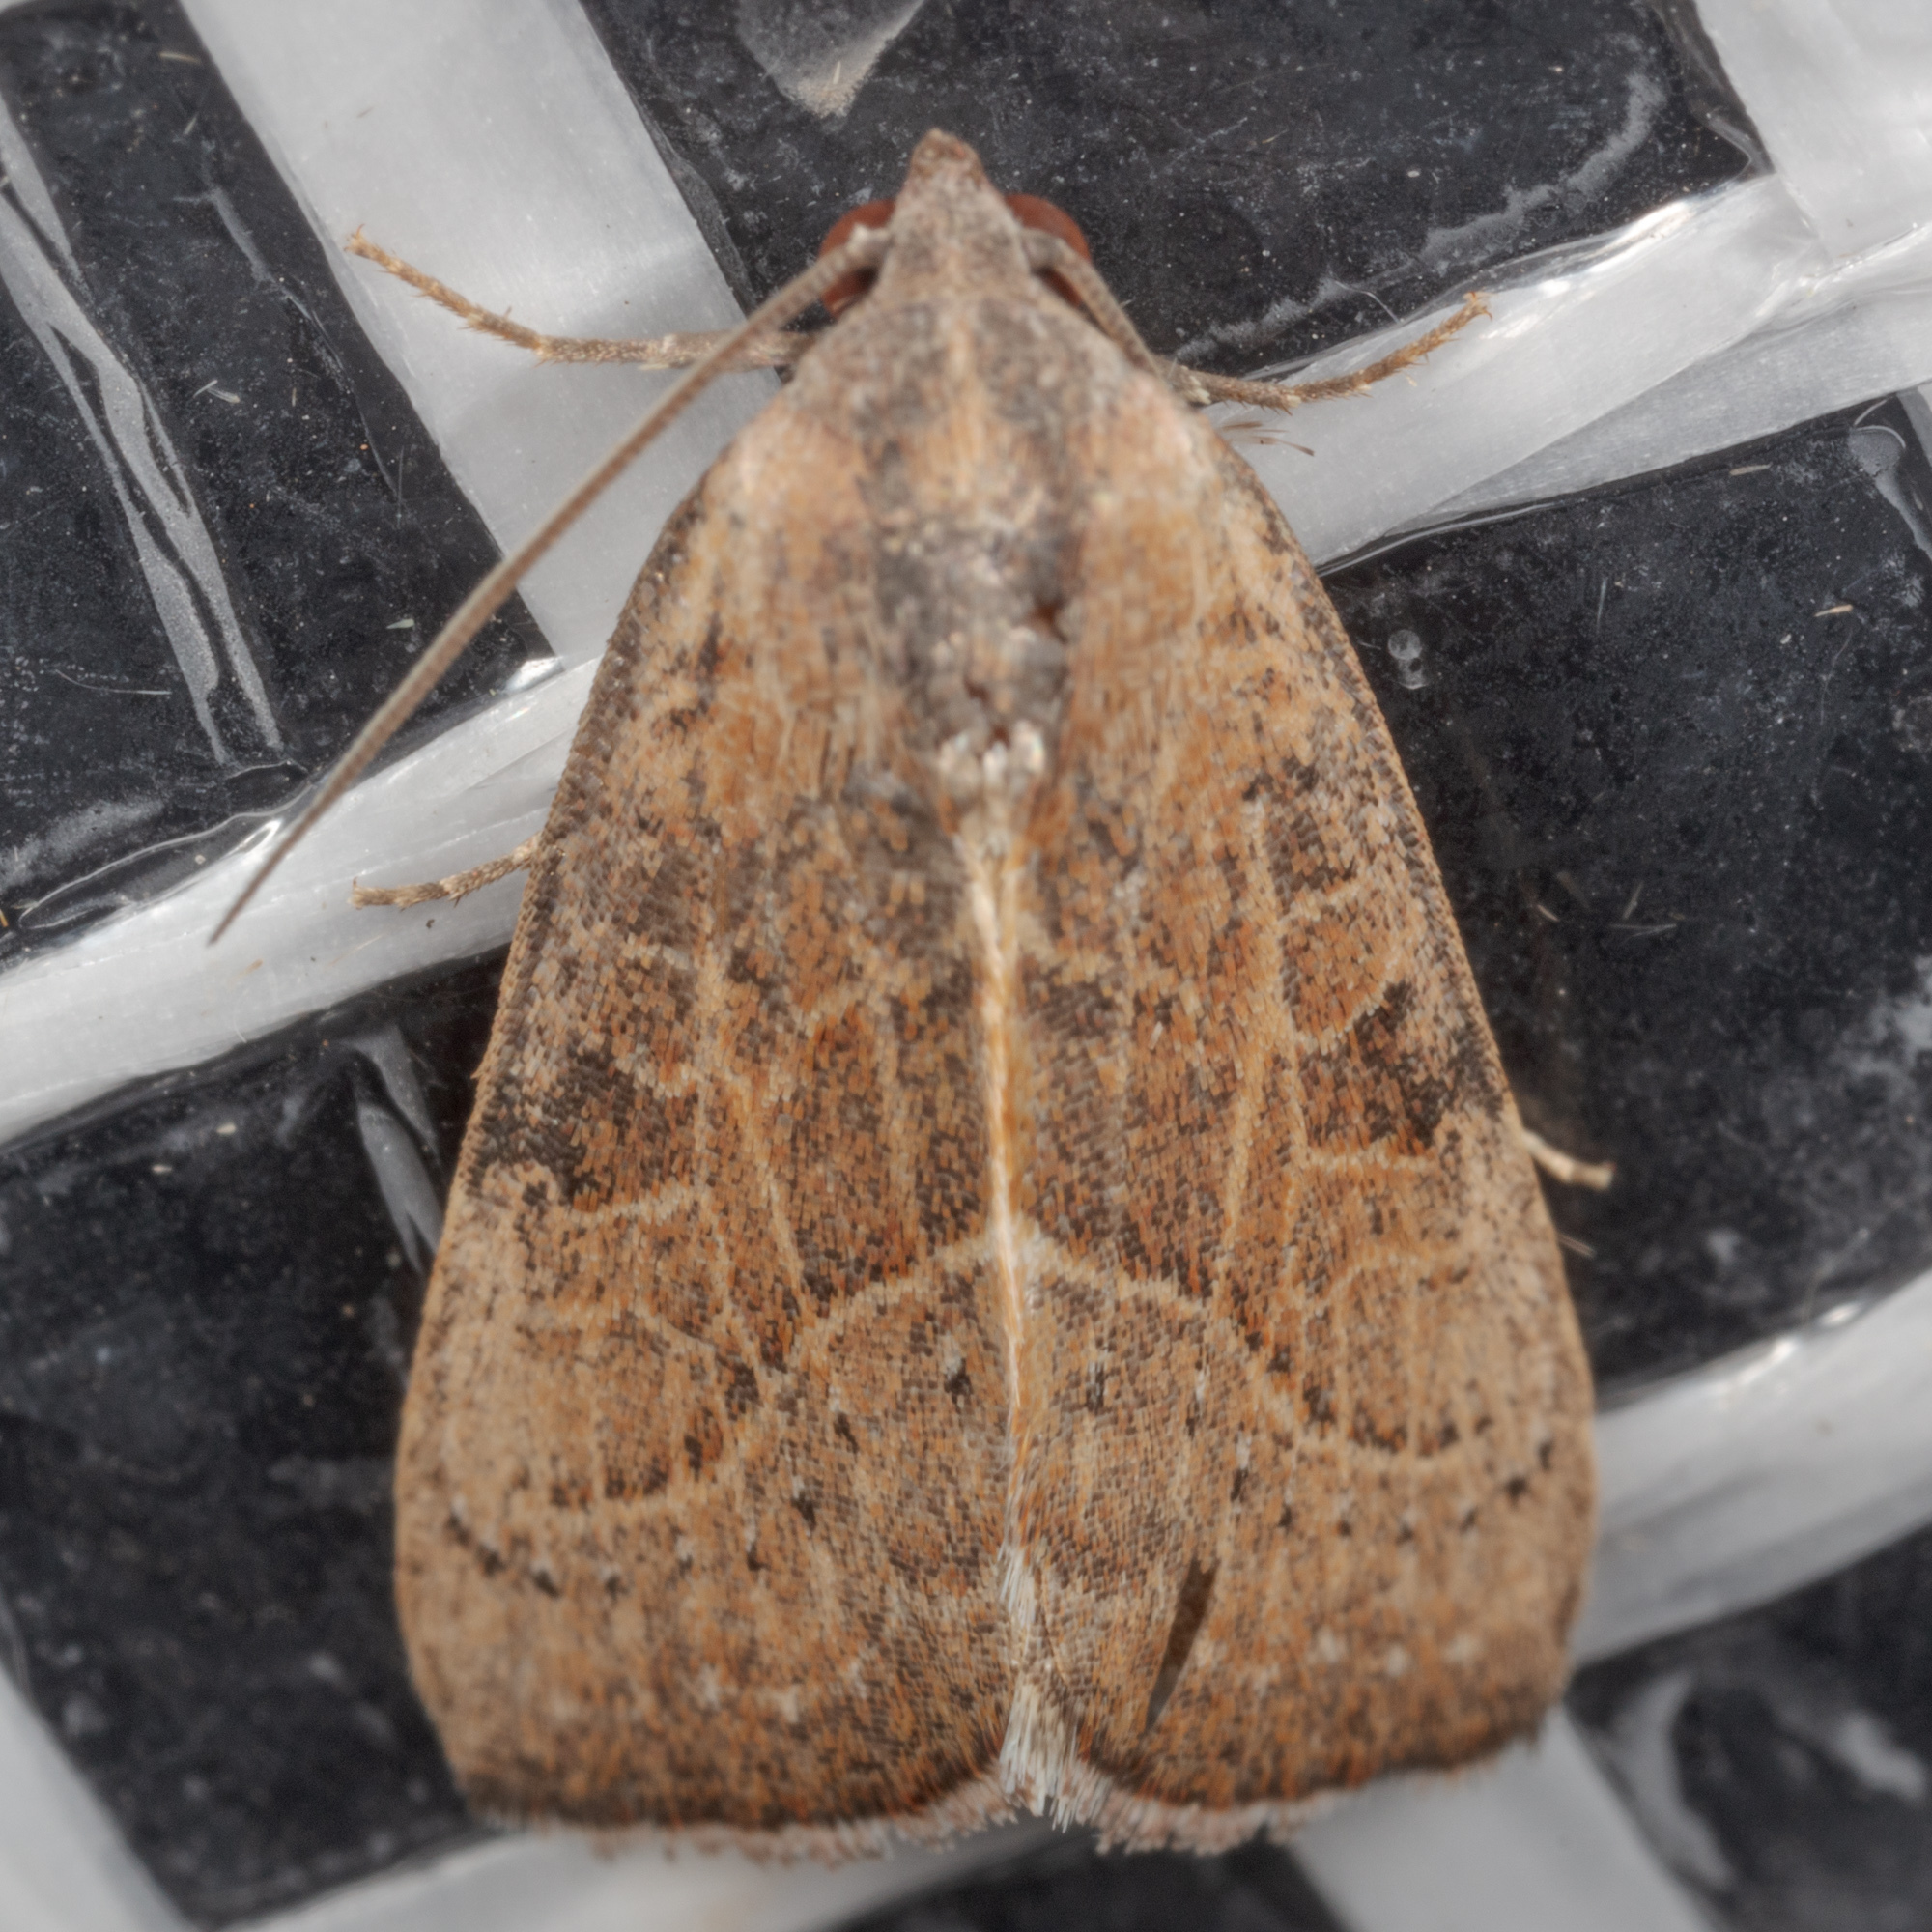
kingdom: Animalia
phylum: Arthropoda
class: Insecta
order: Lepidoptera
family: Noctuidae
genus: Galgula
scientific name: Galgula partita
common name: Wedgeling
